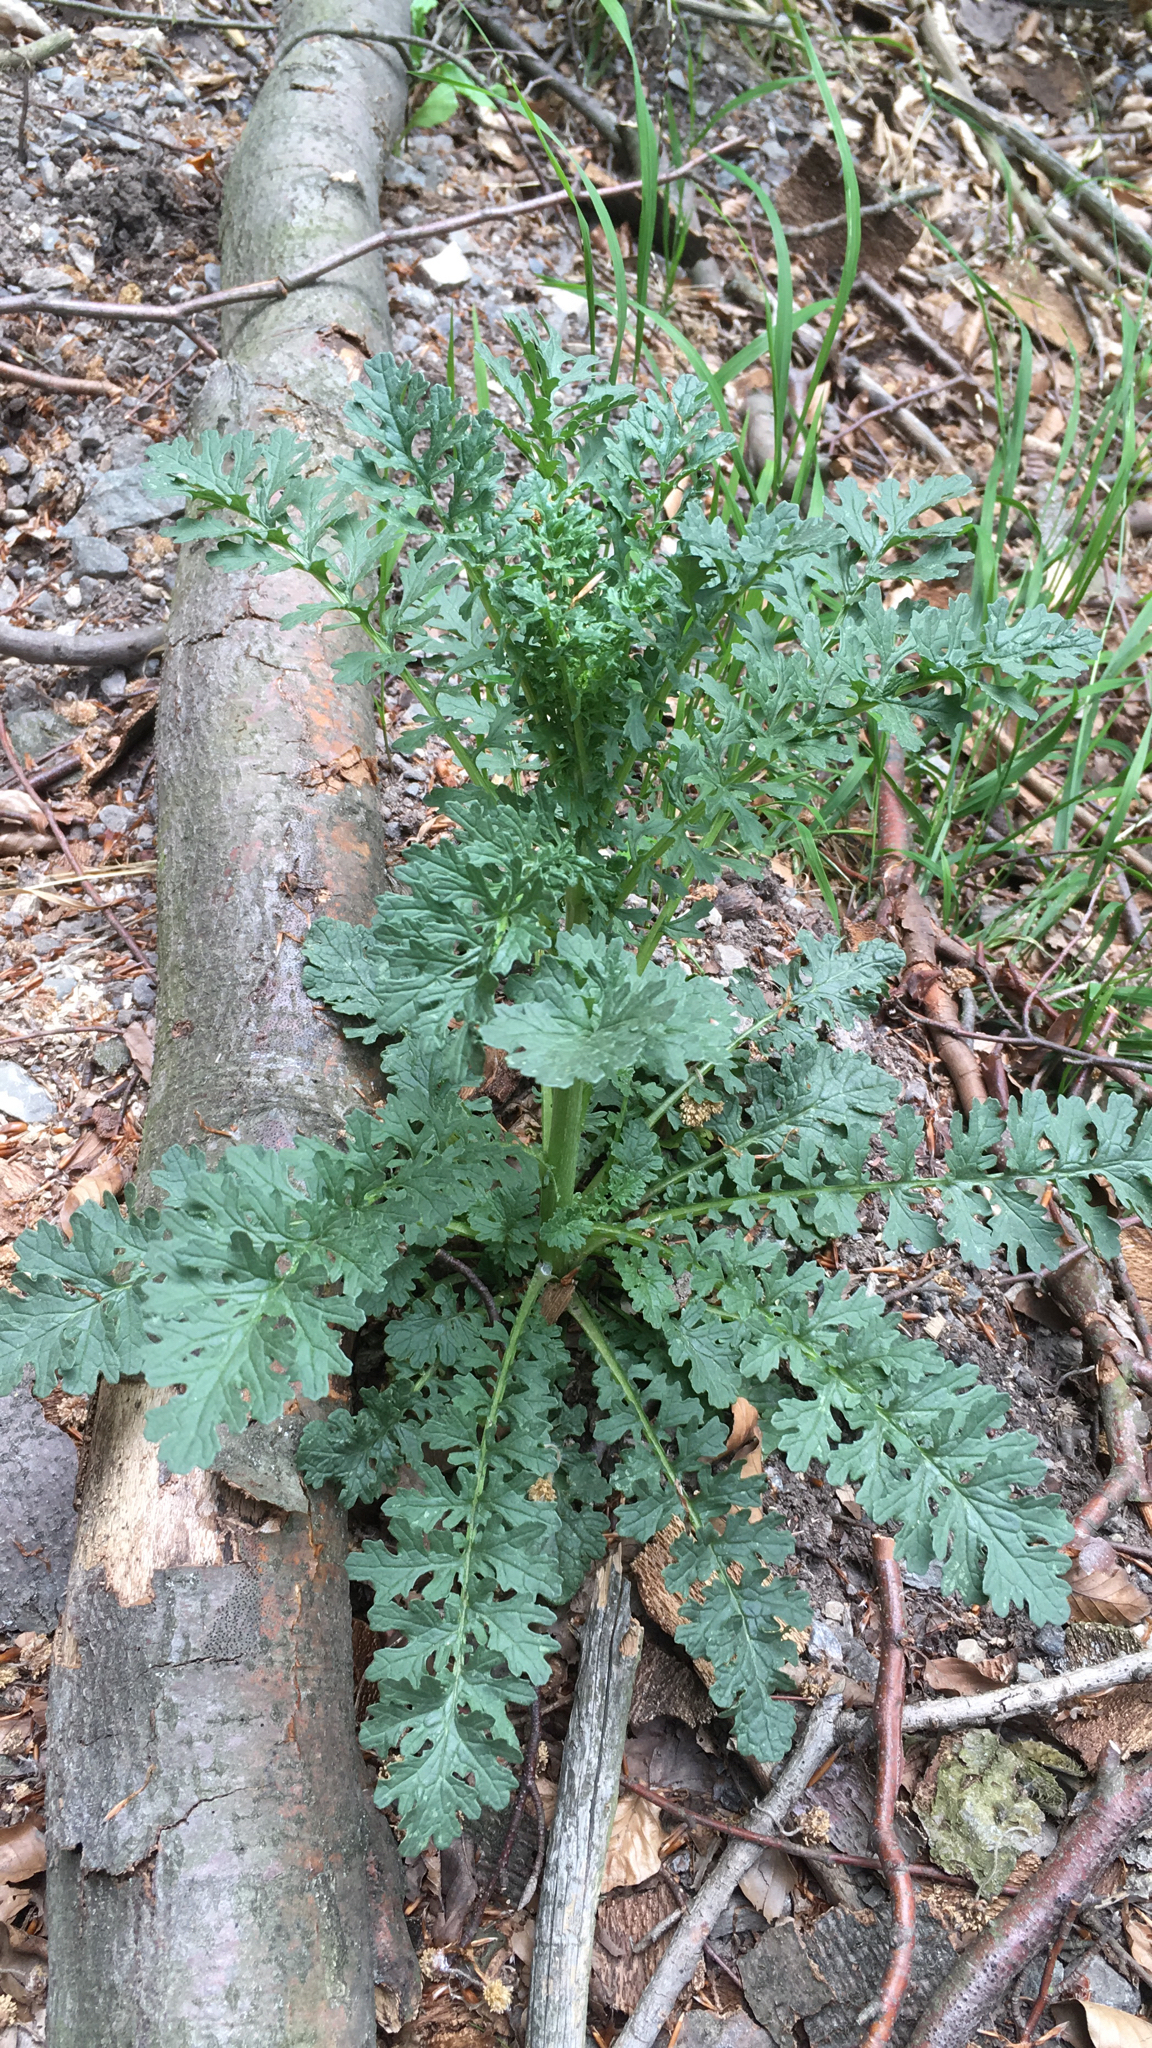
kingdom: Plantae
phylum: Tracheophyta
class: Magnoliopsida
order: Asterales
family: Asteraceae
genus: Jacobaea
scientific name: Jacobaea vulgaris
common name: Stinking willie
